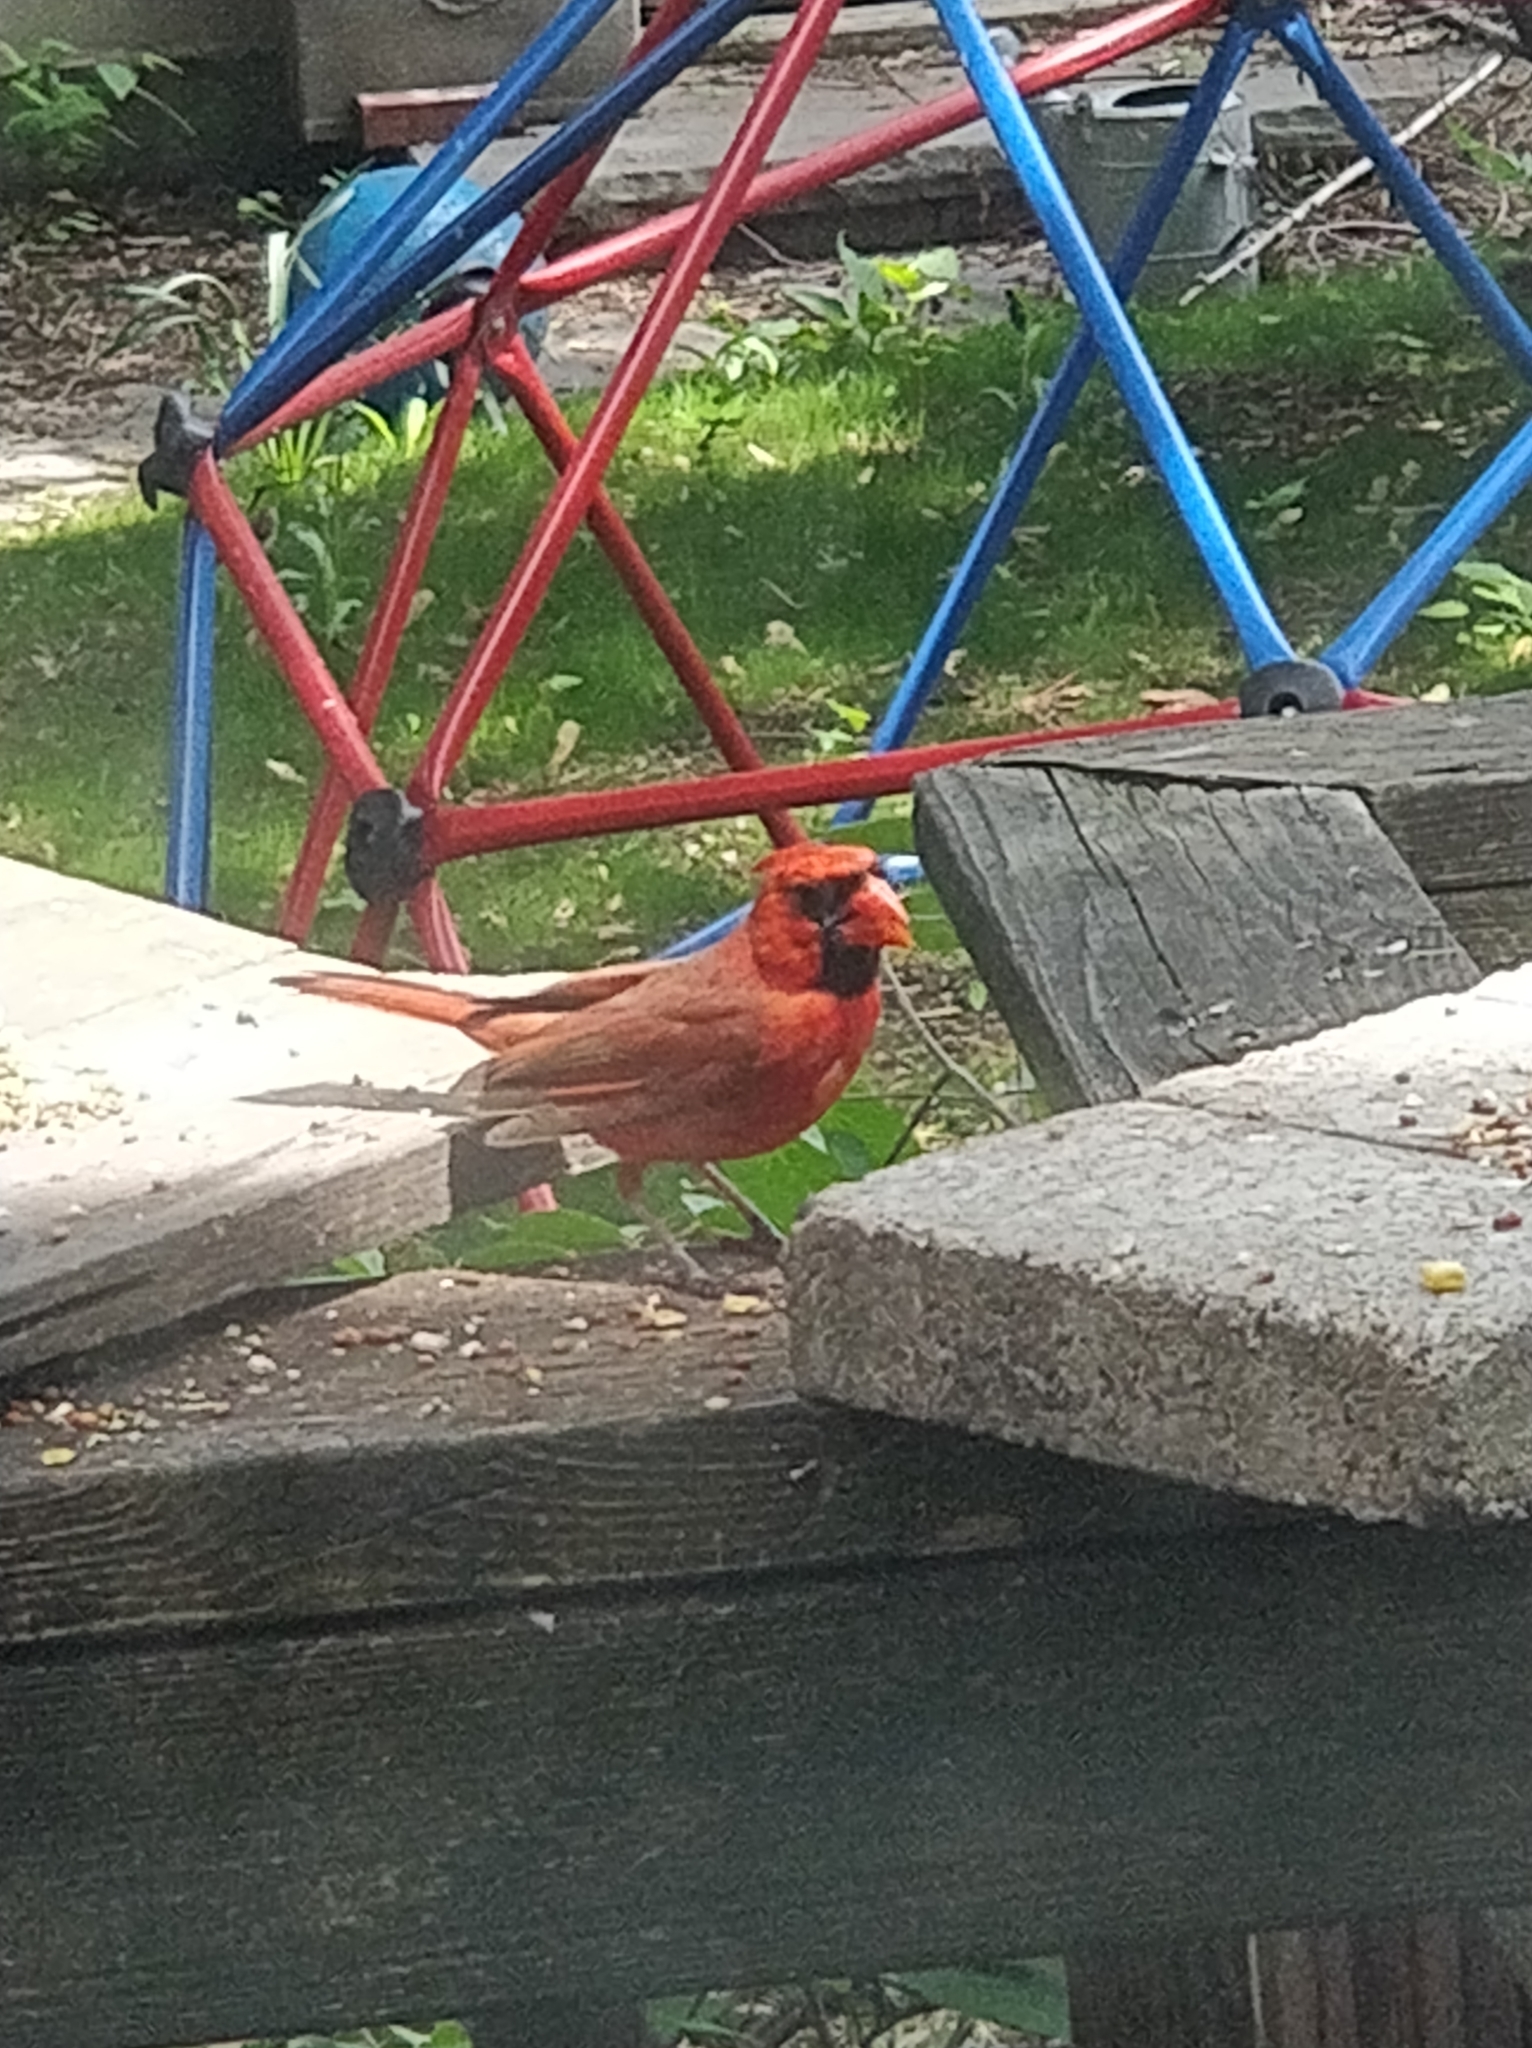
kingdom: Animalia
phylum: Chordata
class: Aves
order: Passeriformes
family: Cardinalidae
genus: Cardinalis
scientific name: Cardinalis cardinalis
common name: Northern cardinal
